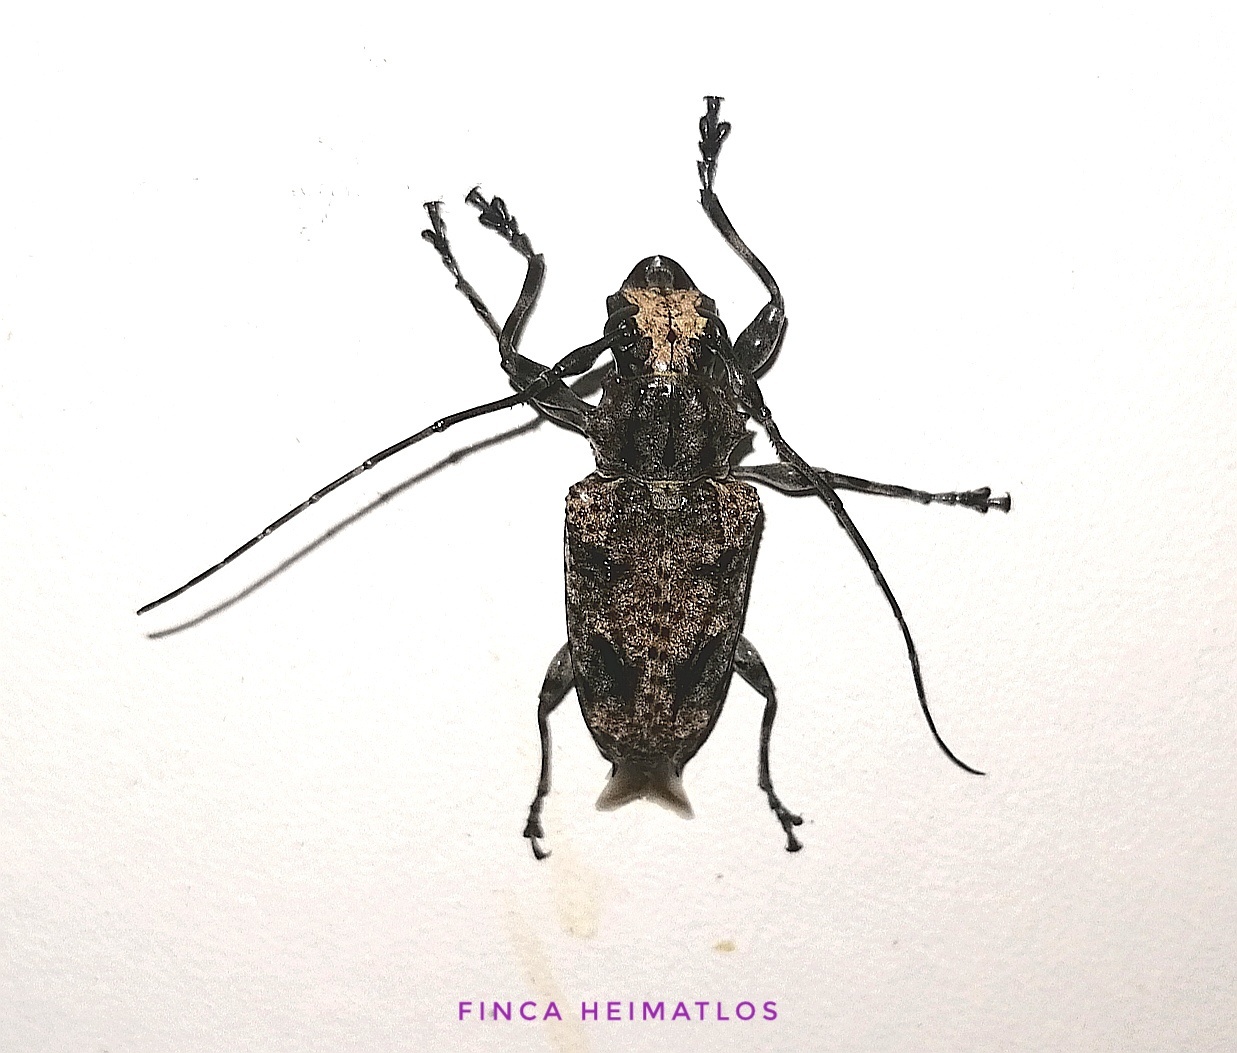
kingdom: Animalia
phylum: Arthropoda
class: Insecta
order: Coleoptera
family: Cerambycidae
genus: Steirastoma
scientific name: Steirastoma senex
